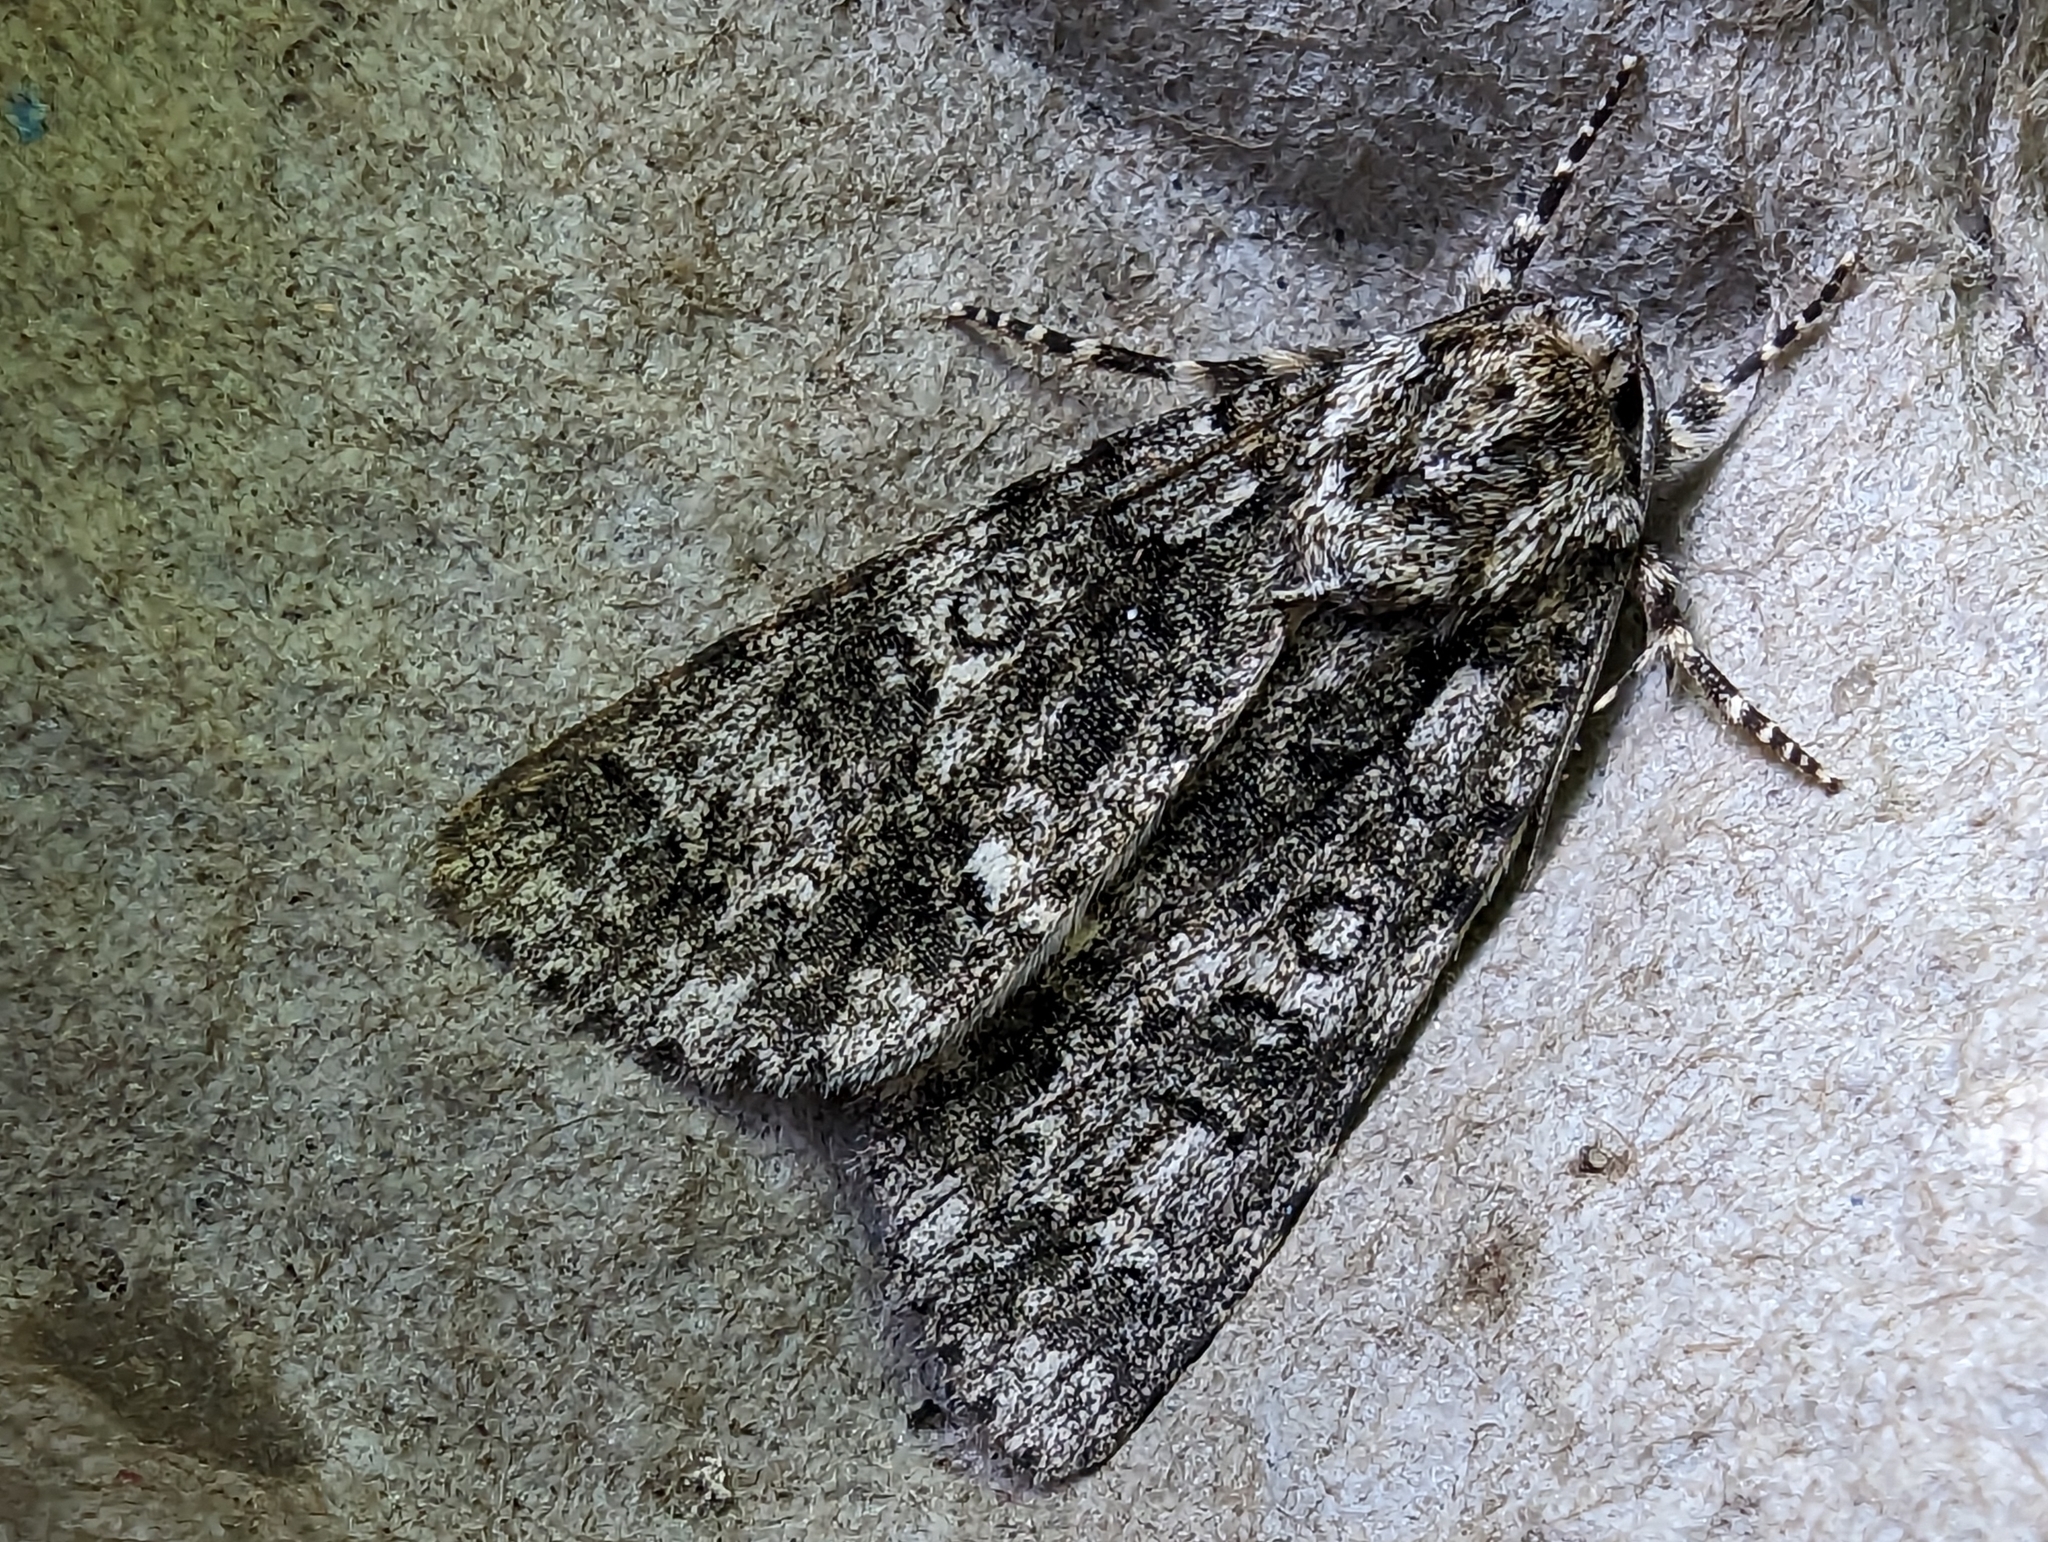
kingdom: Animalia
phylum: Arthropoda
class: Insecta
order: Lepidoptera
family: Noctuidae
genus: Acronicta
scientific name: Acronicta rumicis
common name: Knot grass
